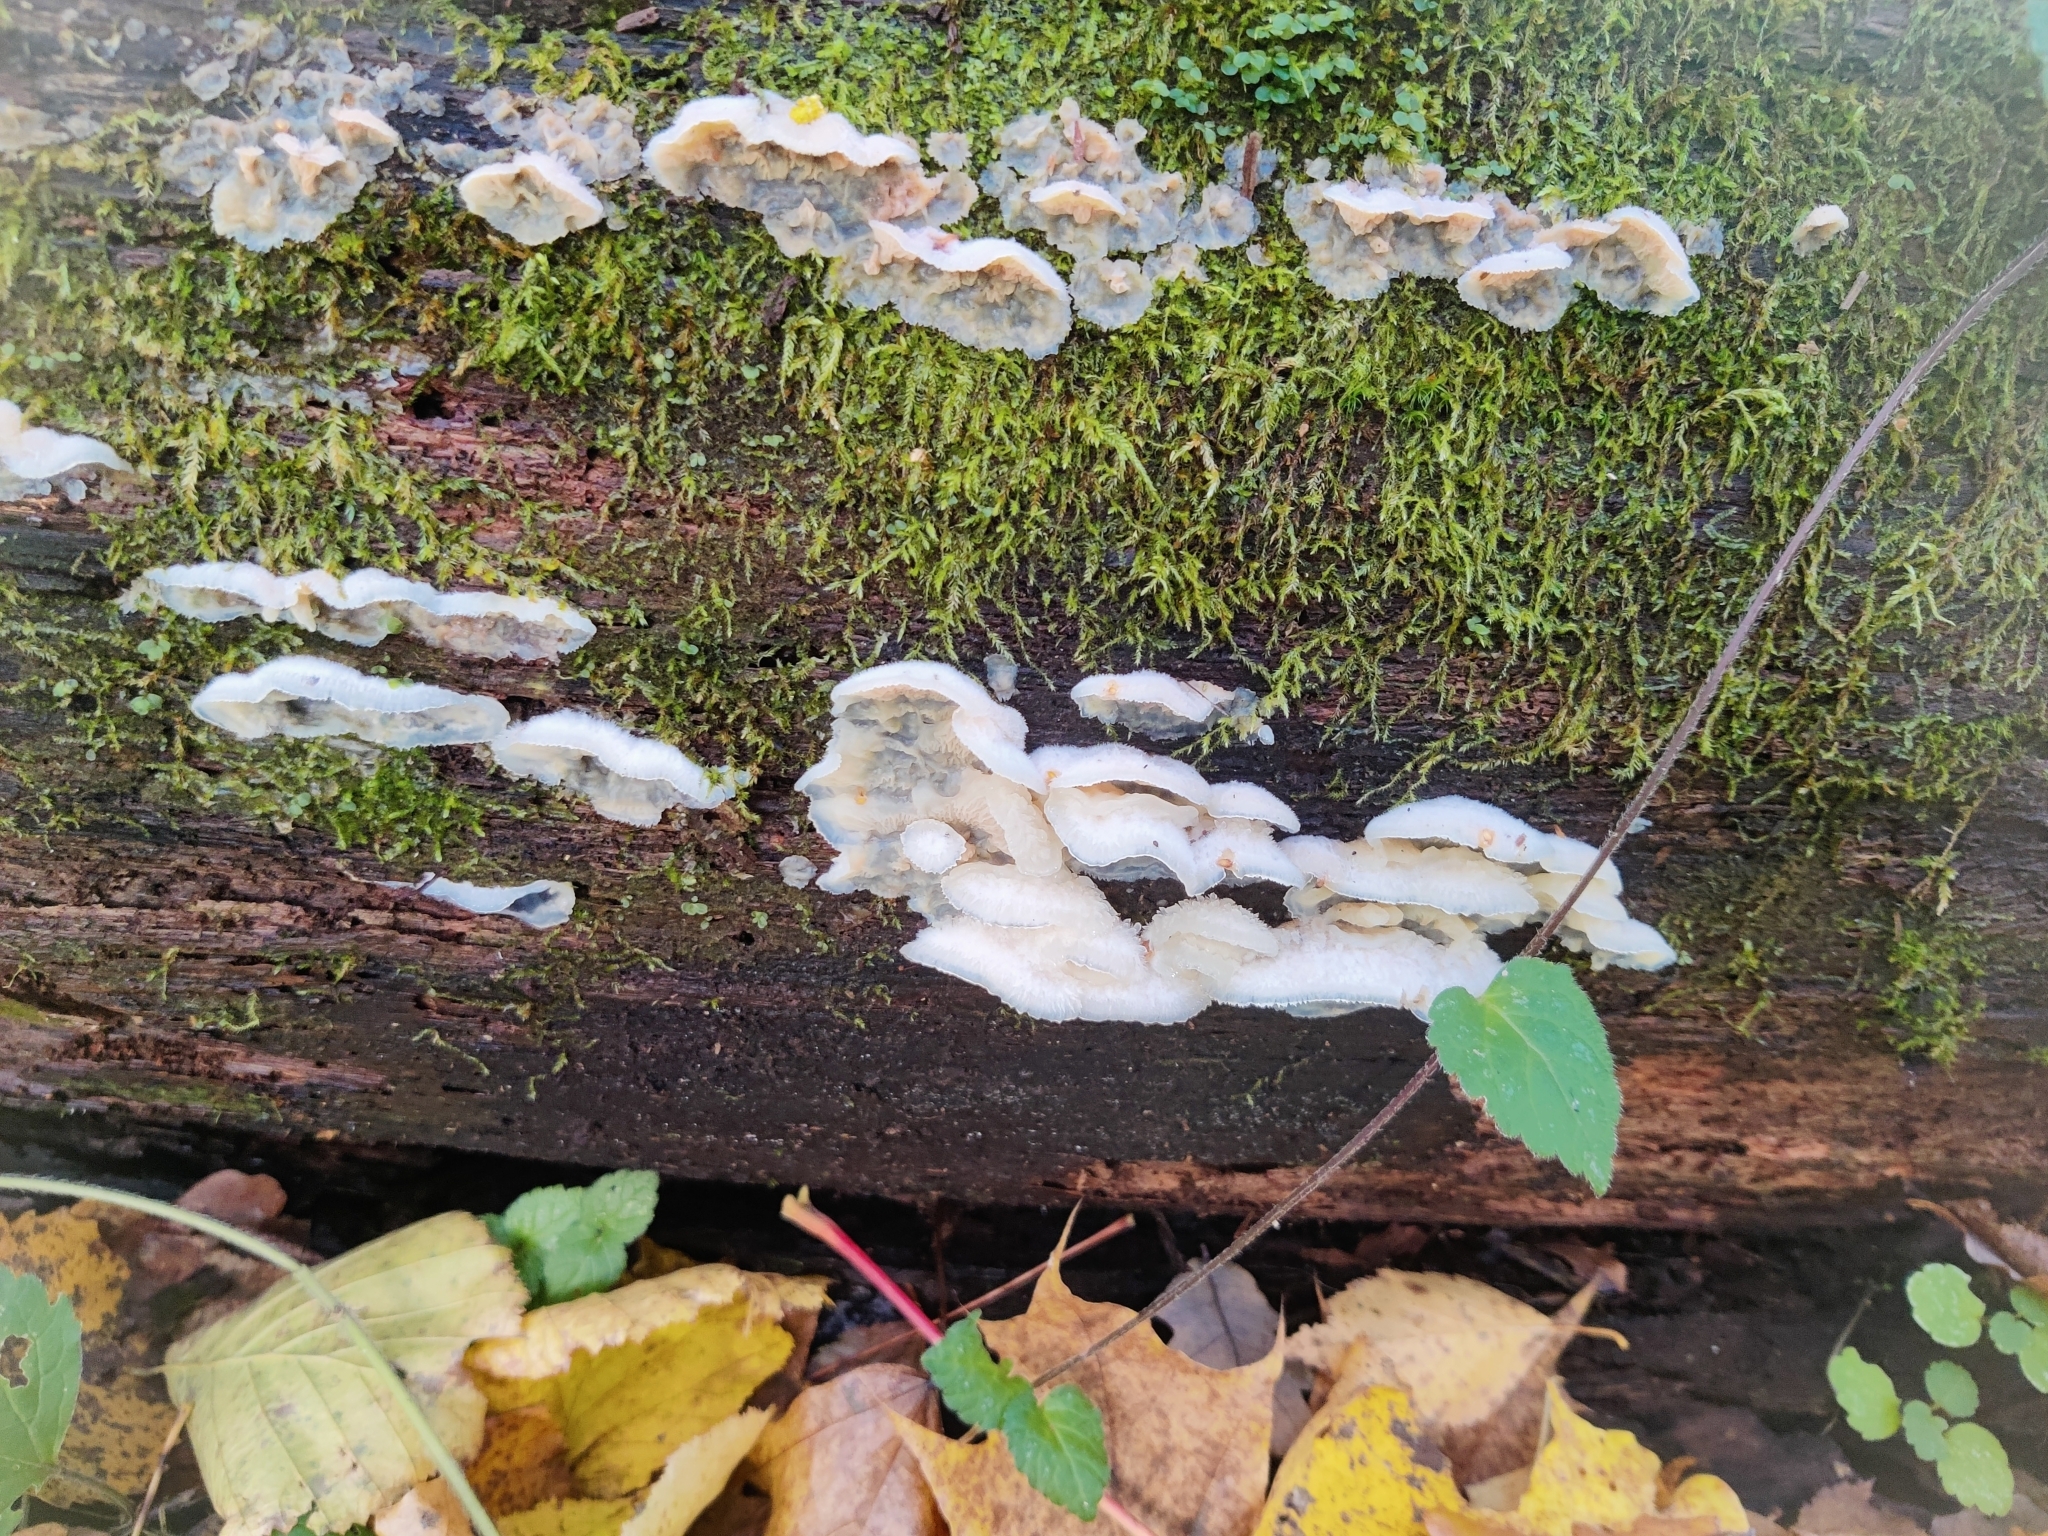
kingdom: Fungi
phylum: Basidiomycota
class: Agaricomycetes
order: Polyporales
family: Meruliaceae
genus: Phlebia
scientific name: Phlebia tremellosa
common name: Jelly rot
